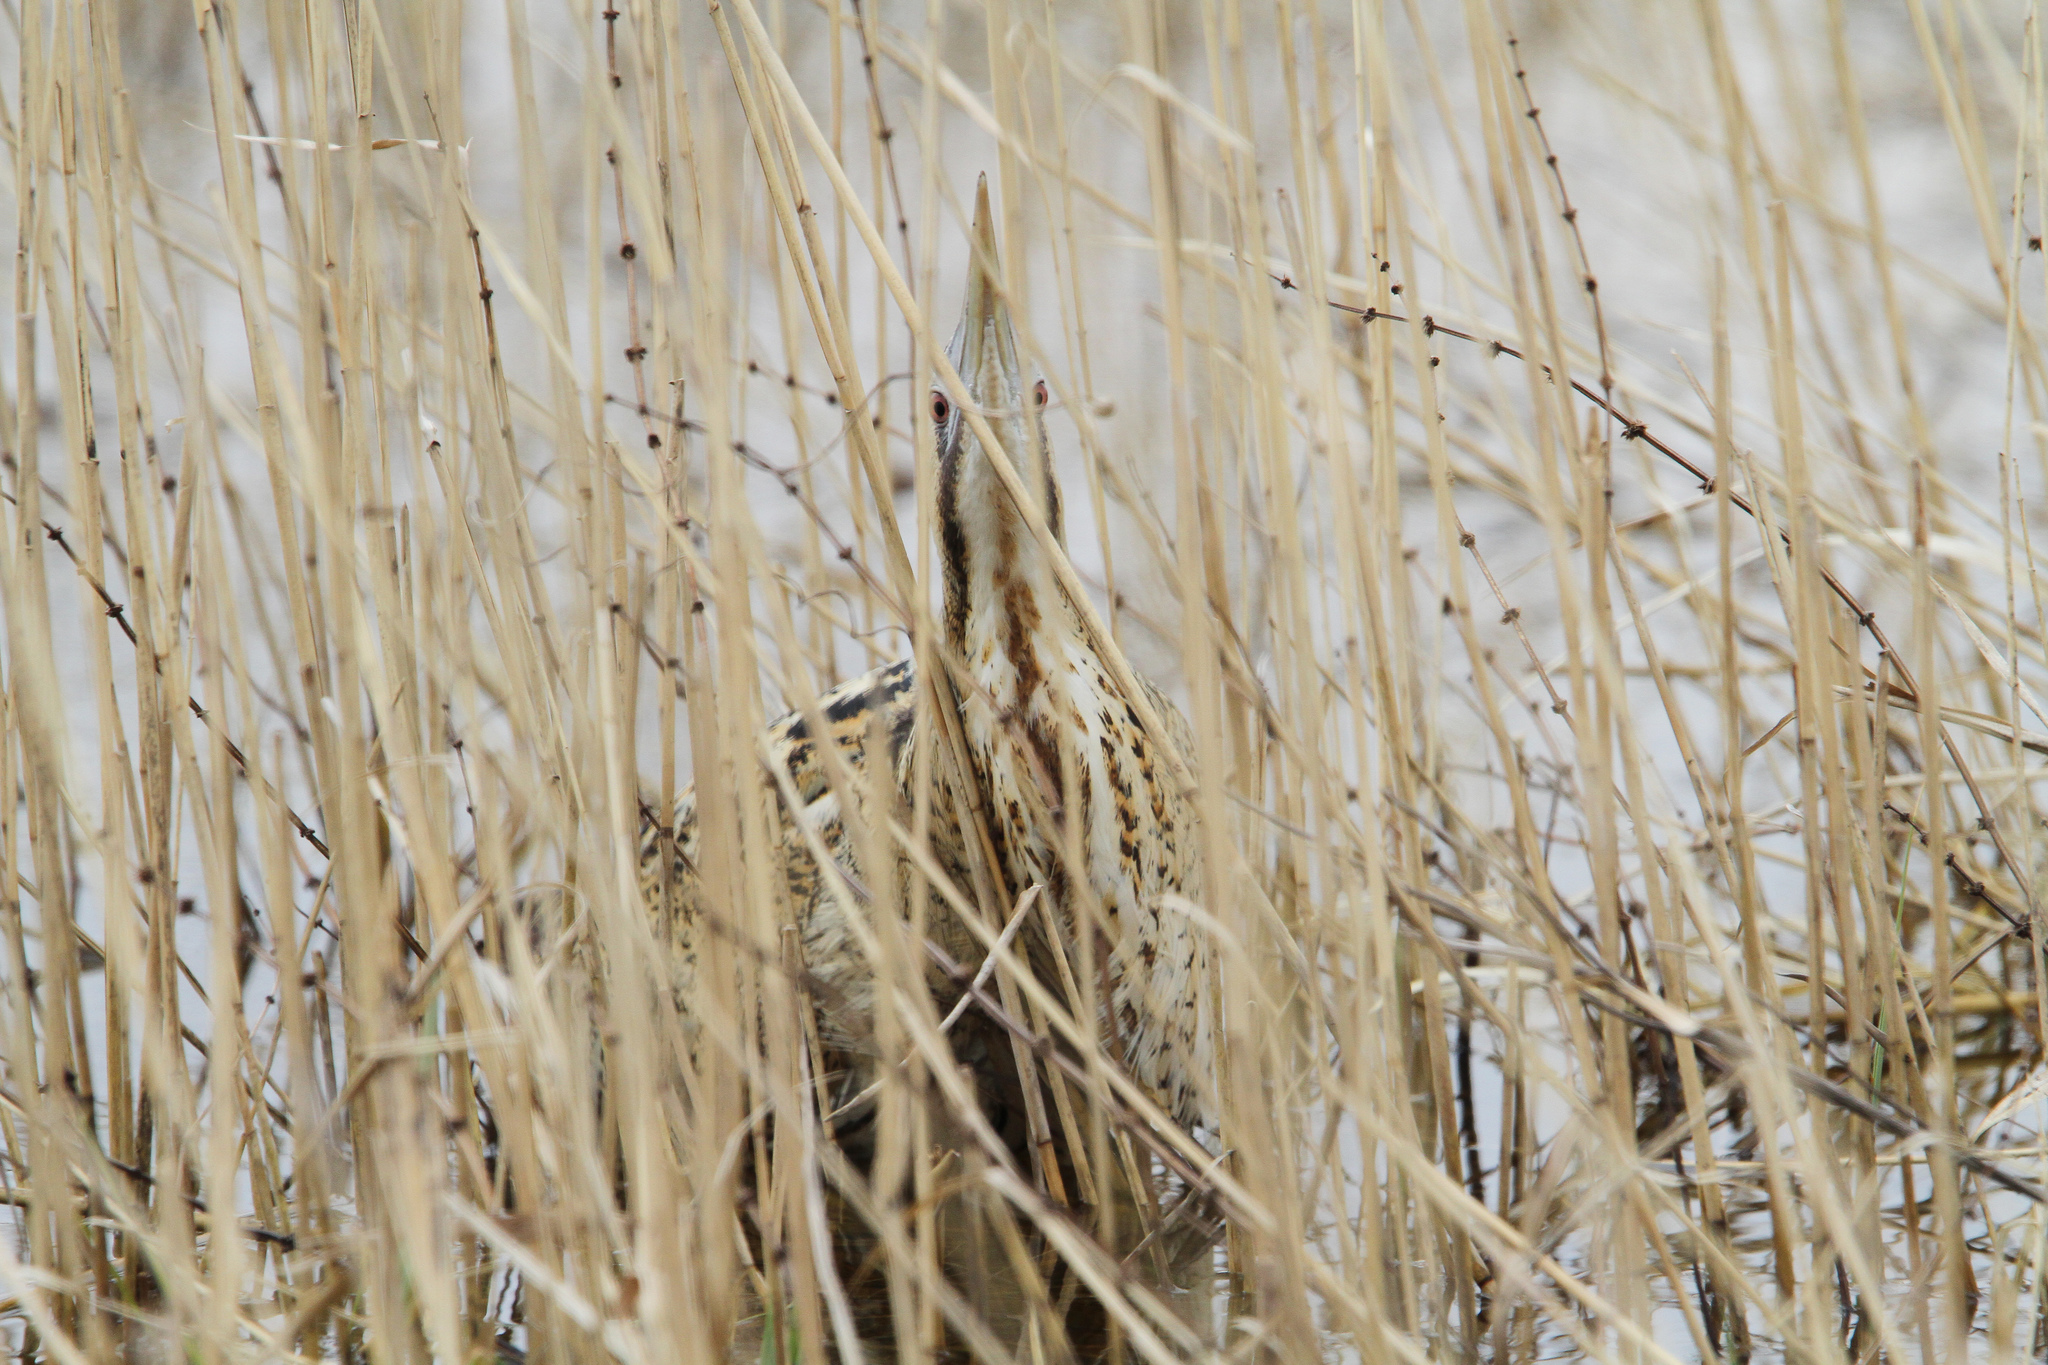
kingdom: Animalia
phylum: Chordata
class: Aves
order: Pelecaniformes
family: Ardeidae
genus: Botaurus
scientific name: Botaurus stellaris
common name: Eurasian bittern
